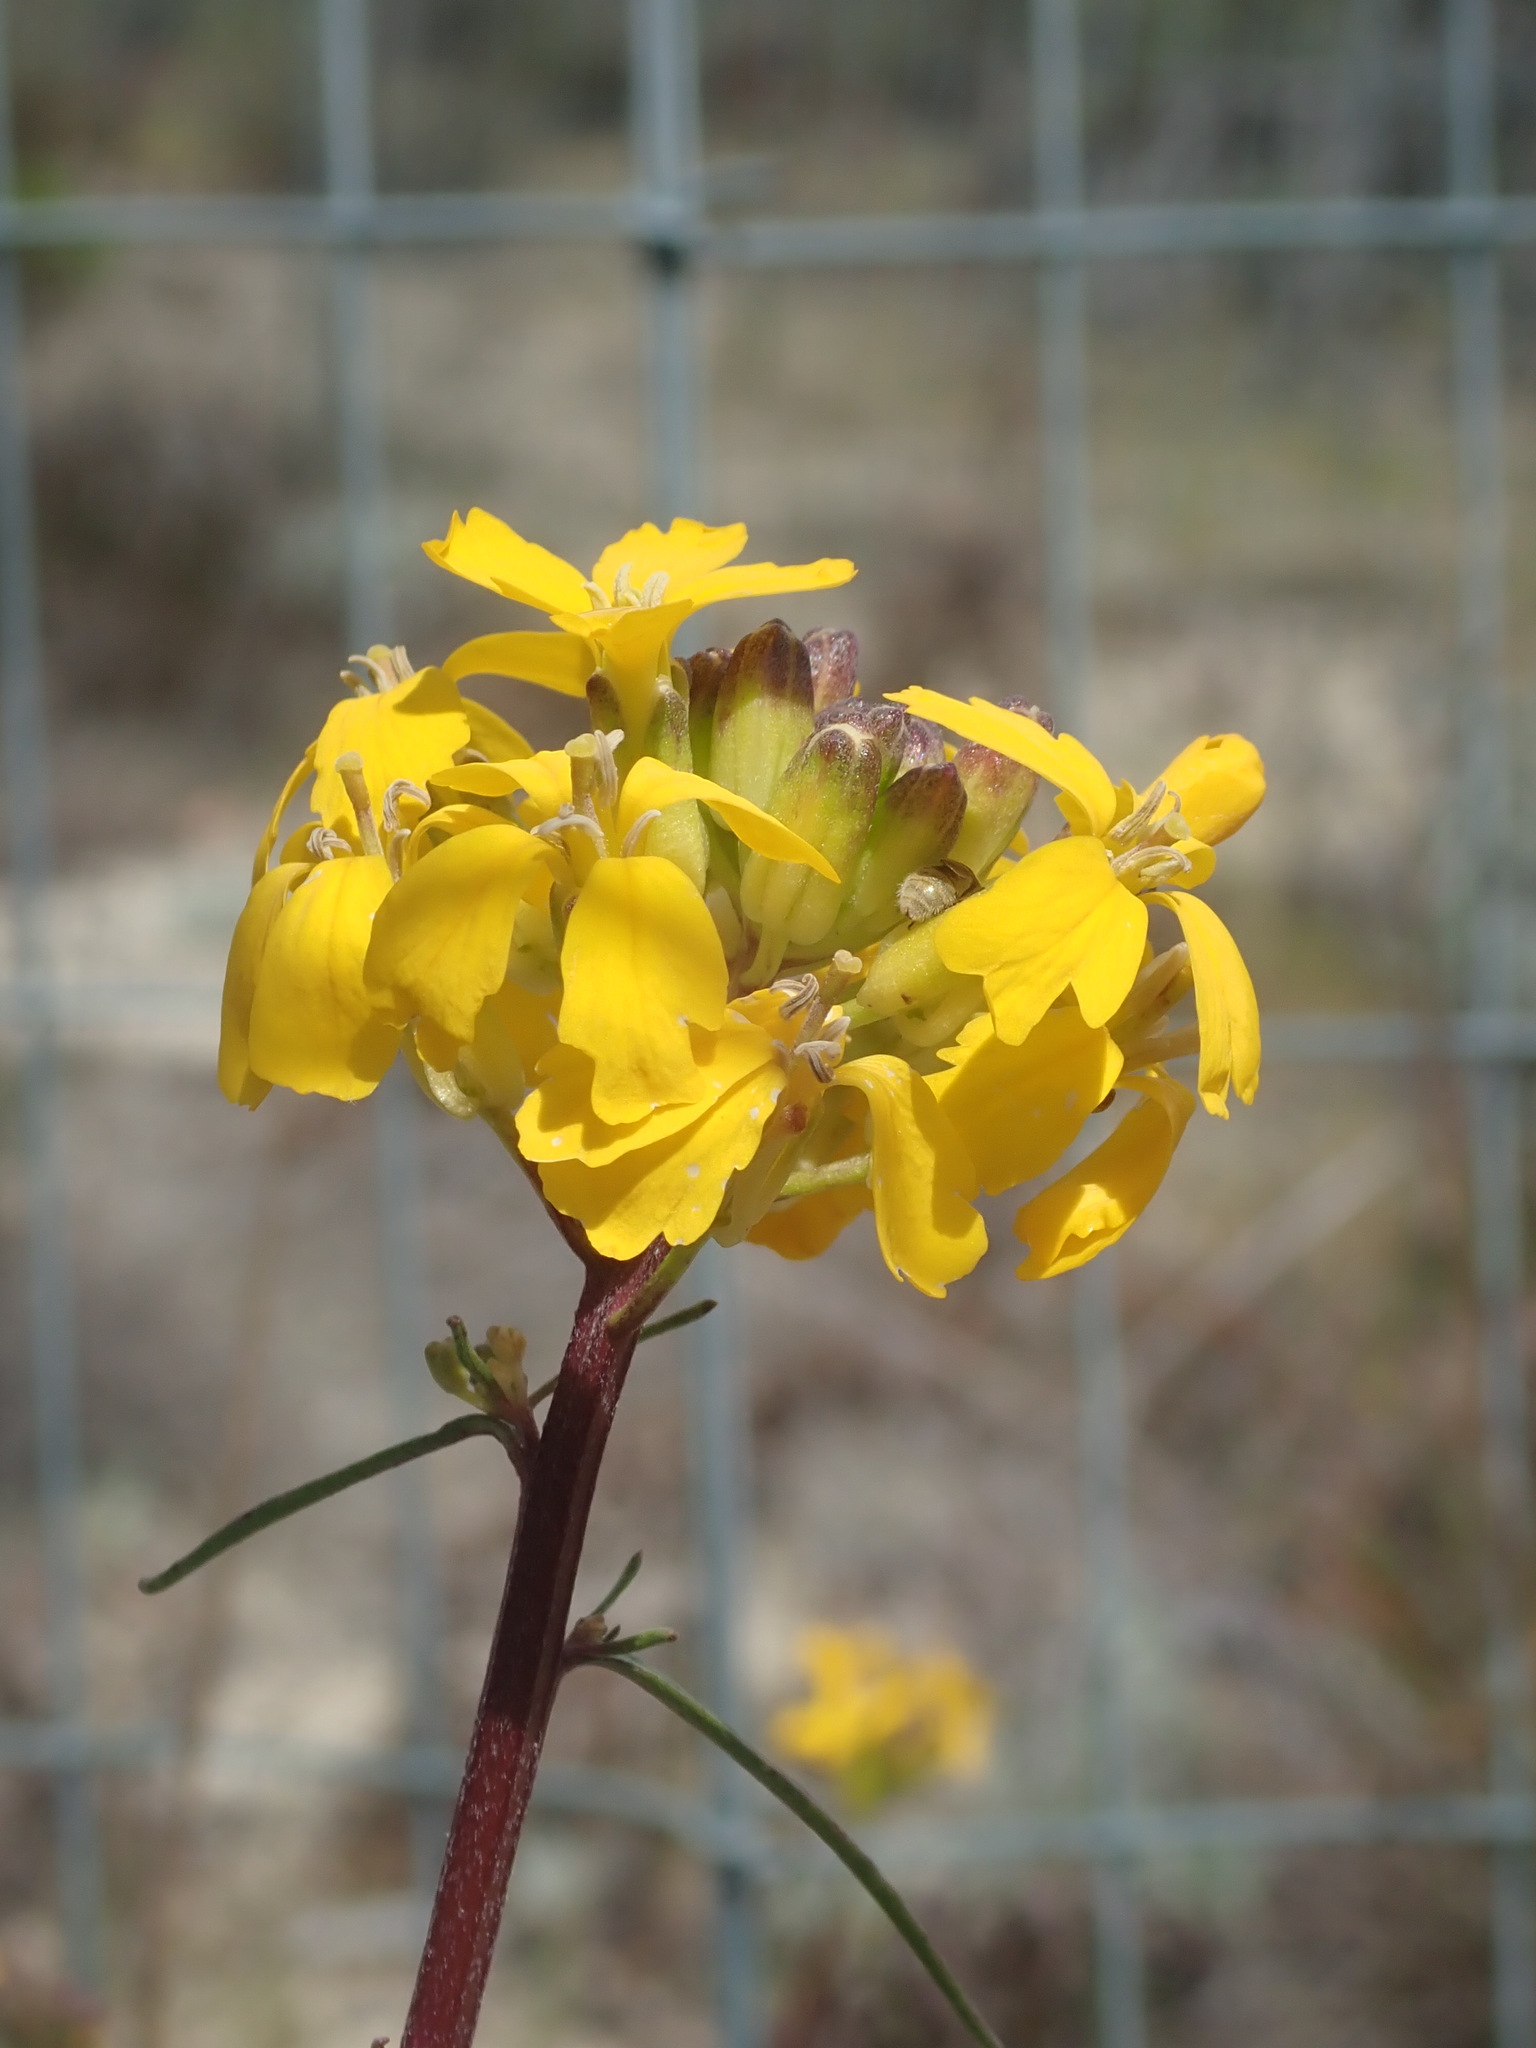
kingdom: Plantae
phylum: Tracheophyta
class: Magnoliopsida
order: Brassicales
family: Brassicaceae
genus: Erysimum
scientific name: Erysimum teretifolium
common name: Ben lomond wallflower
